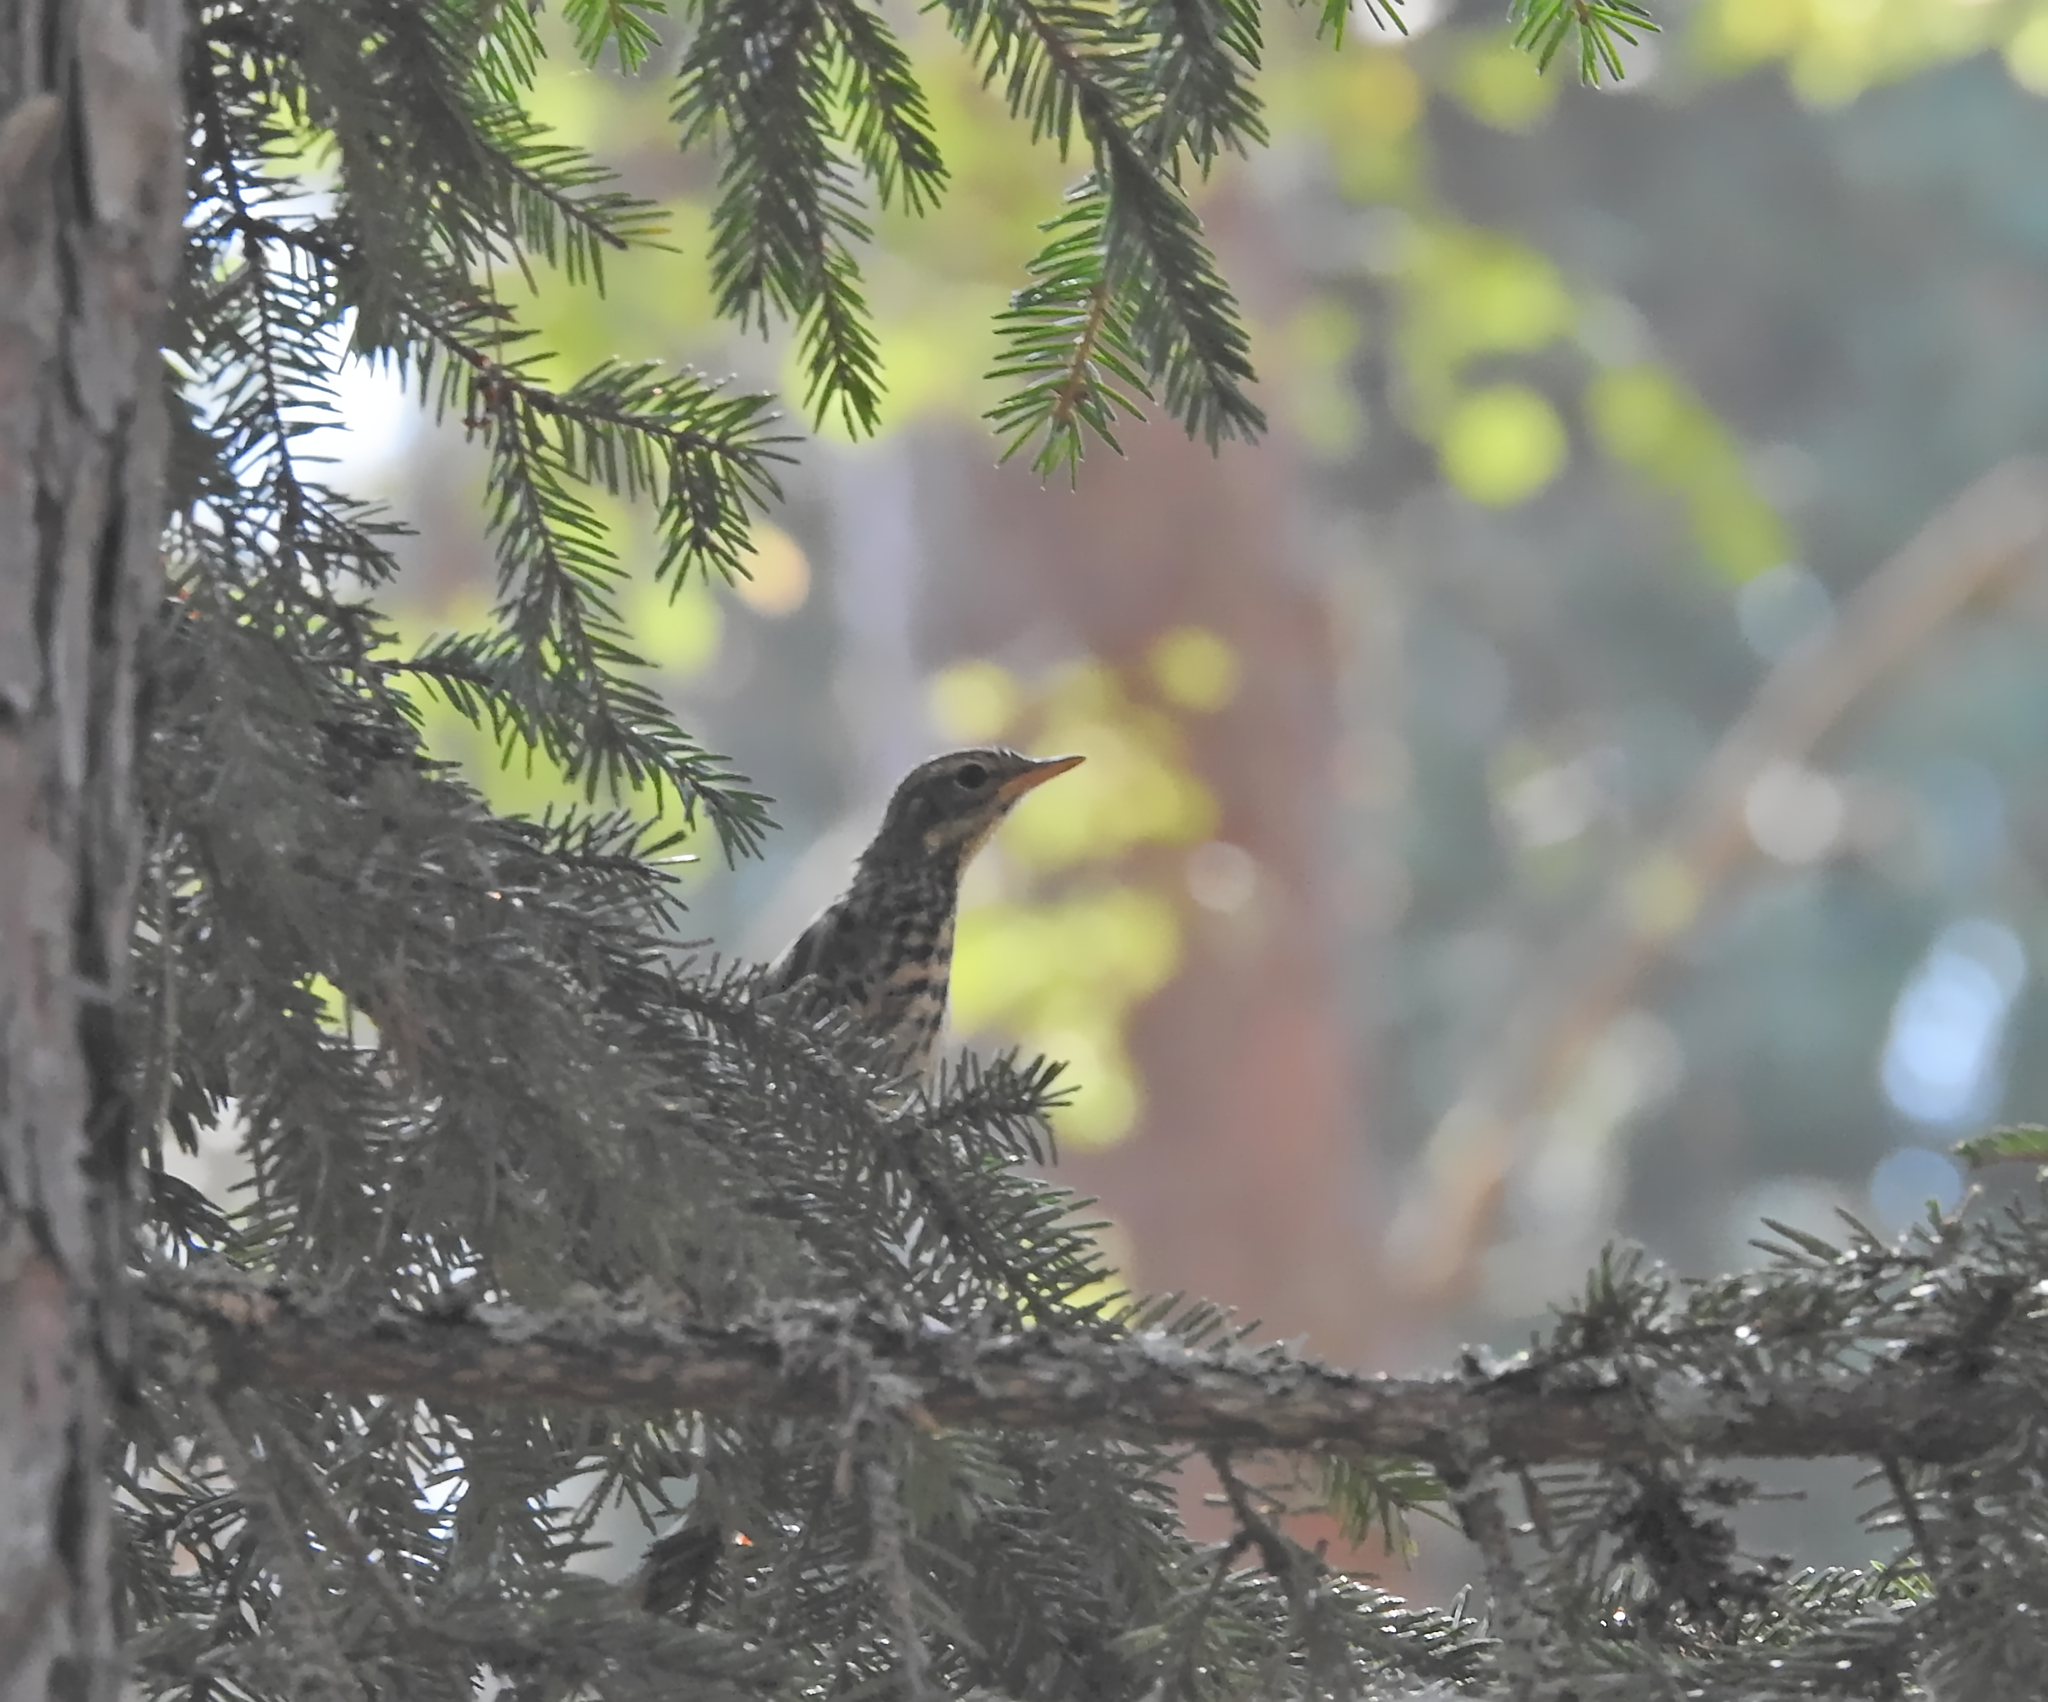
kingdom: Animalia
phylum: Chordata
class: Aves
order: Passeriformes
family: Motacillidae
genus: Anthus
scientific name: Anthus trivialis
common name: Tree pipit
